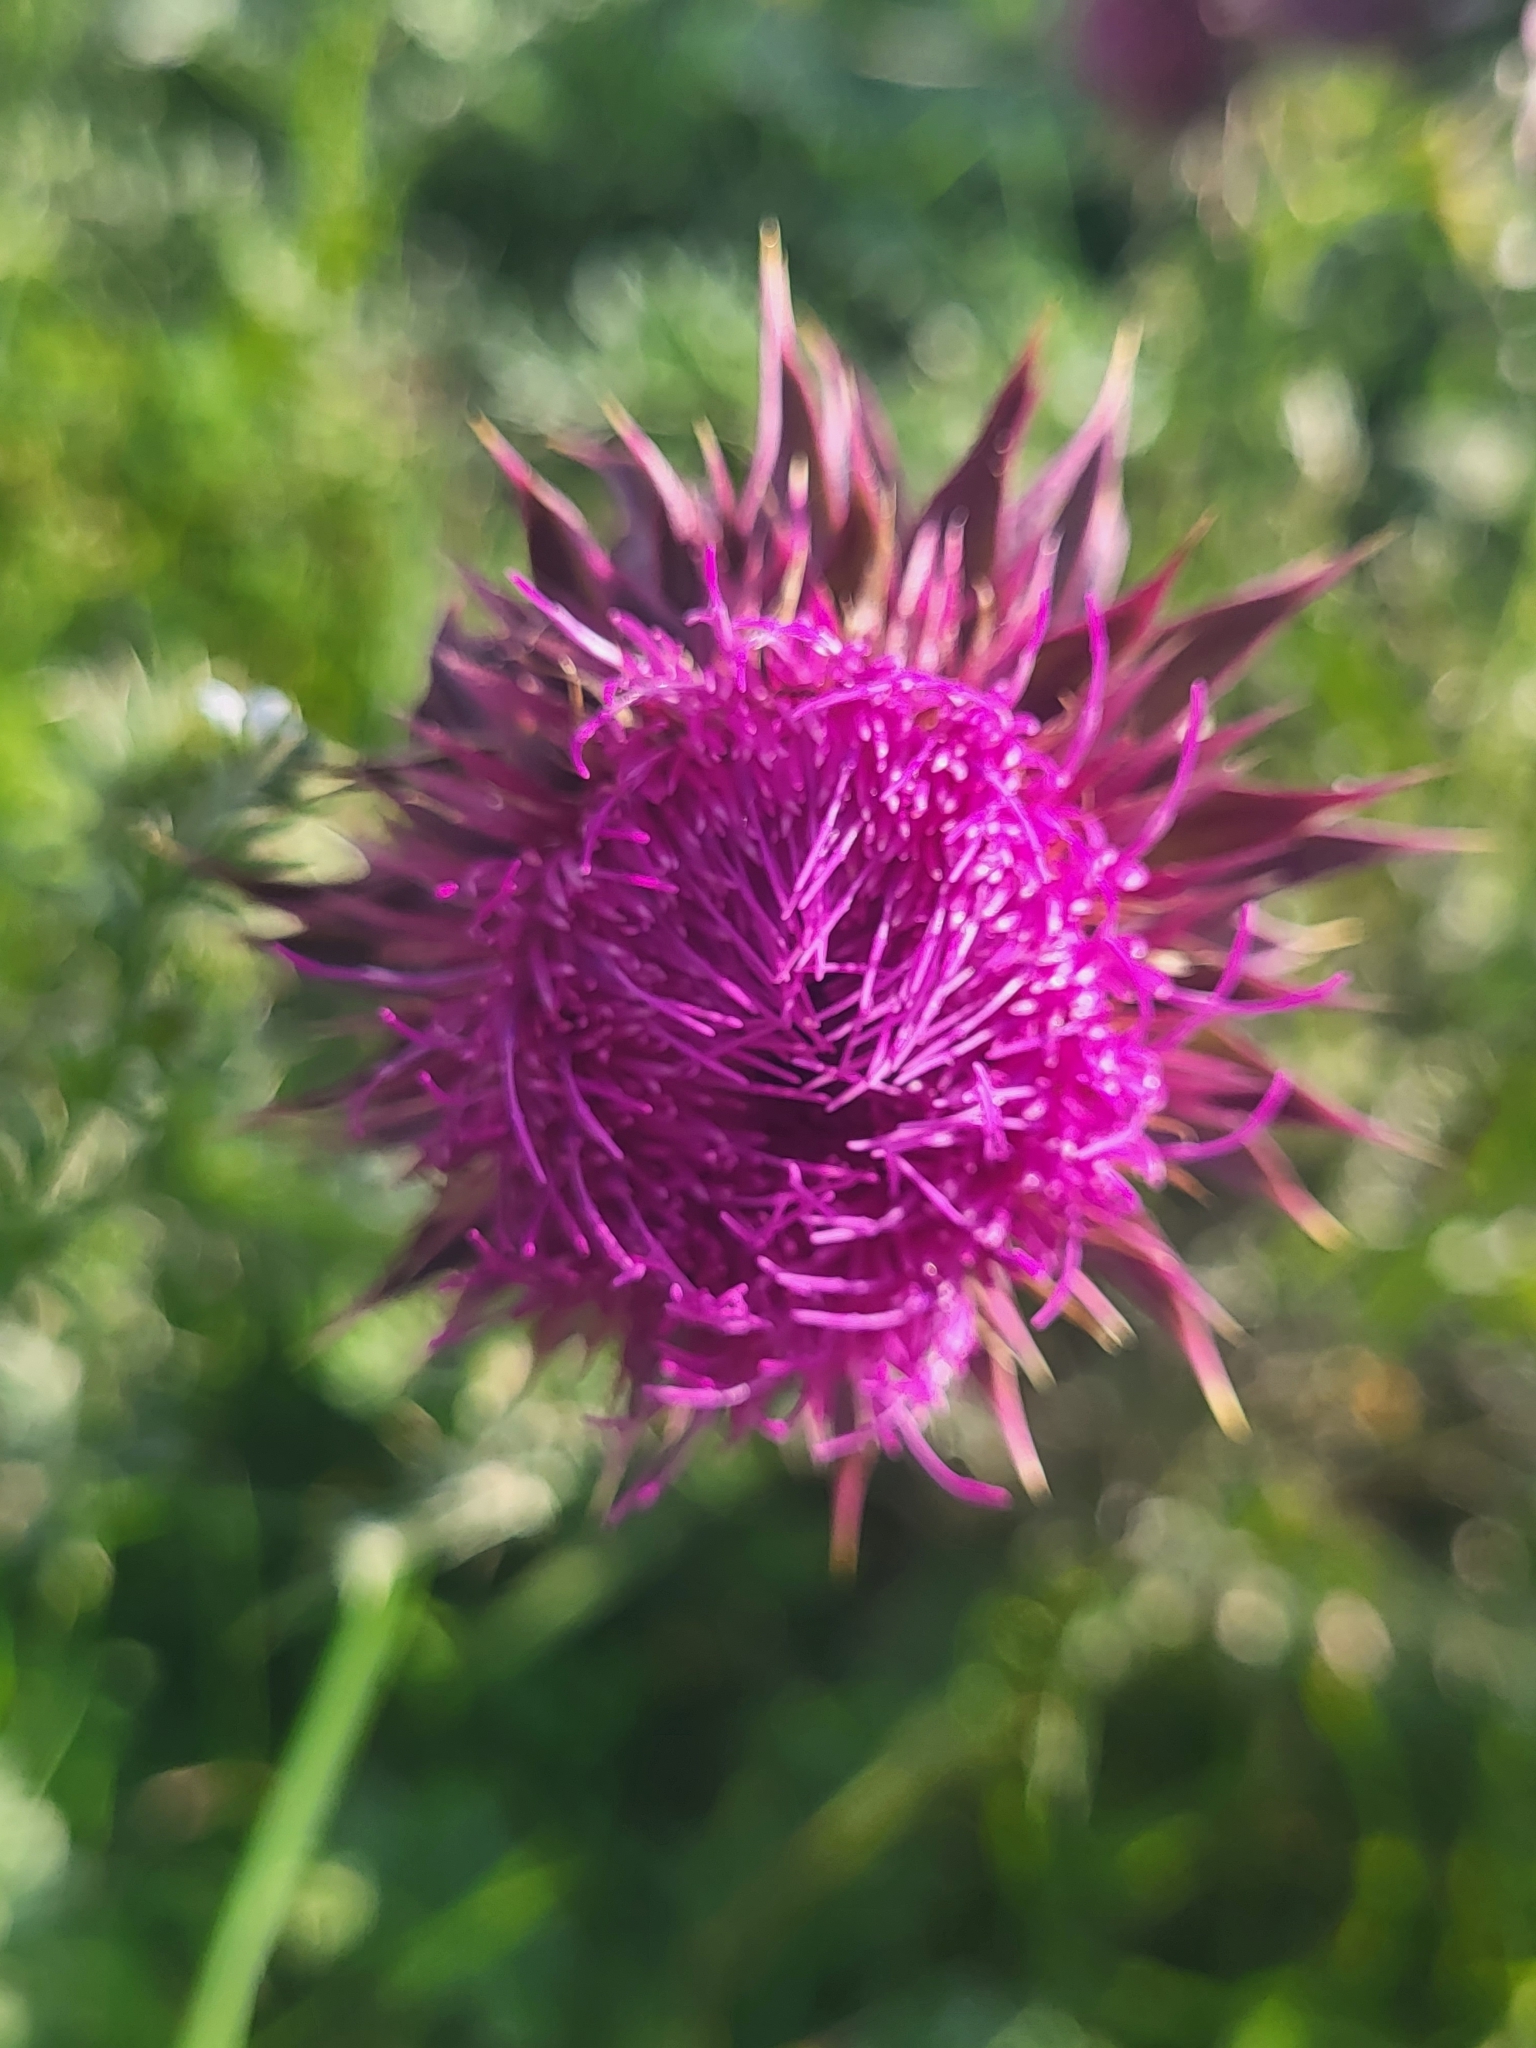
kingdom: Plantae
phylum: Tracheophyta
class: Magnoliopsida
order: Asterales
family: Asteraceae
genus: Carduus
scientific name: Carduus nutans
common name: Musk thistle
